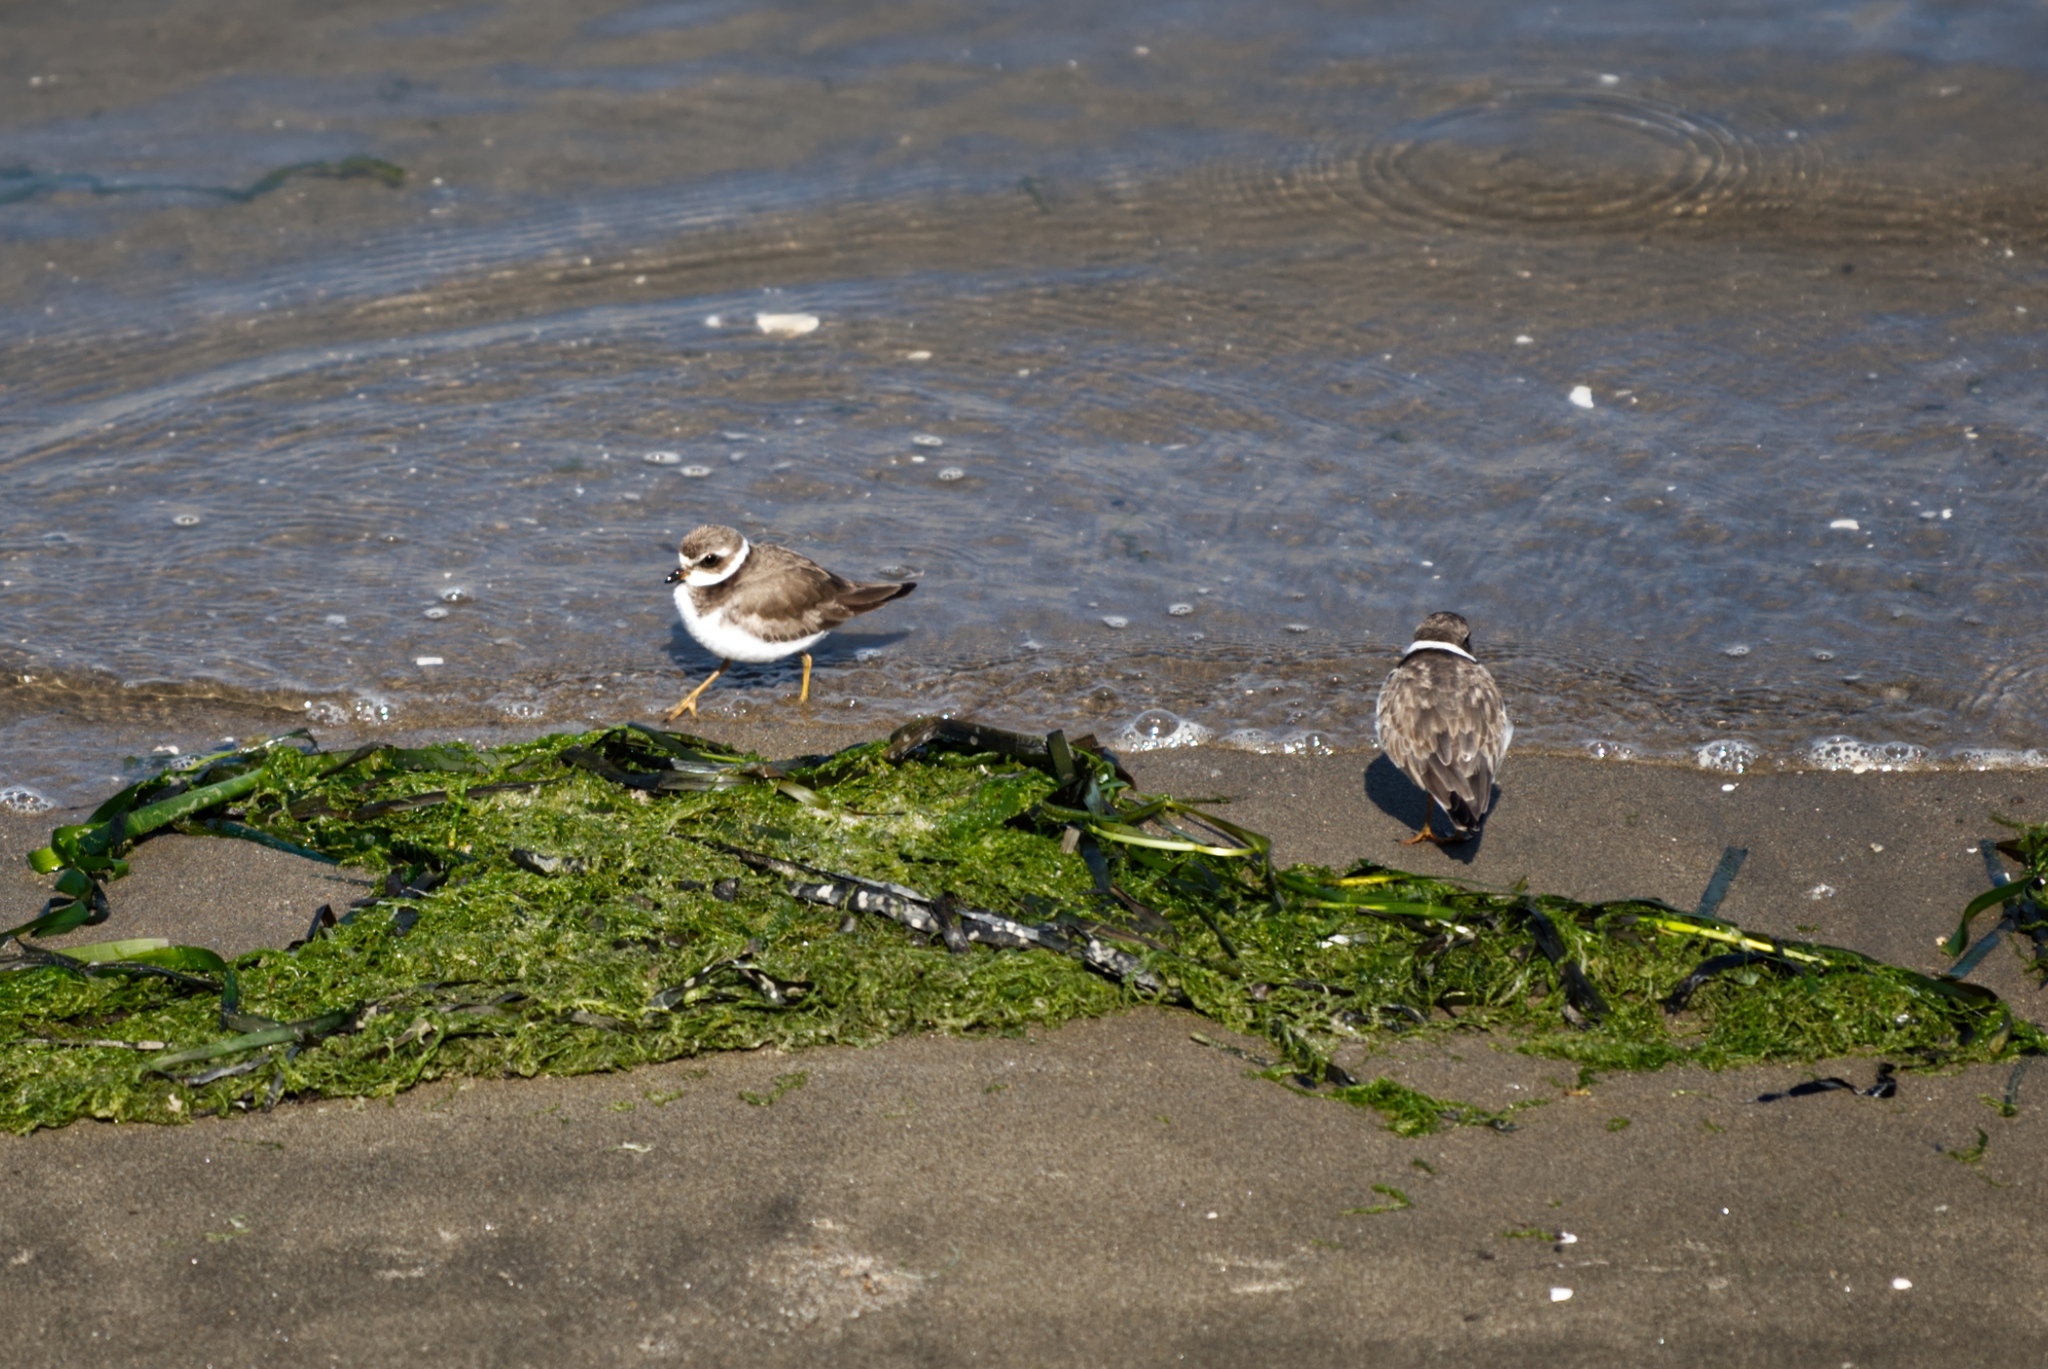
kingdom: Animalia
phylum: Chordata
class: Aves
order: Charadriiformes
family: Charadriidae
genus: Charadrius
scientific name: Charadrius semipalmatus
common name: Semipalmated plover
